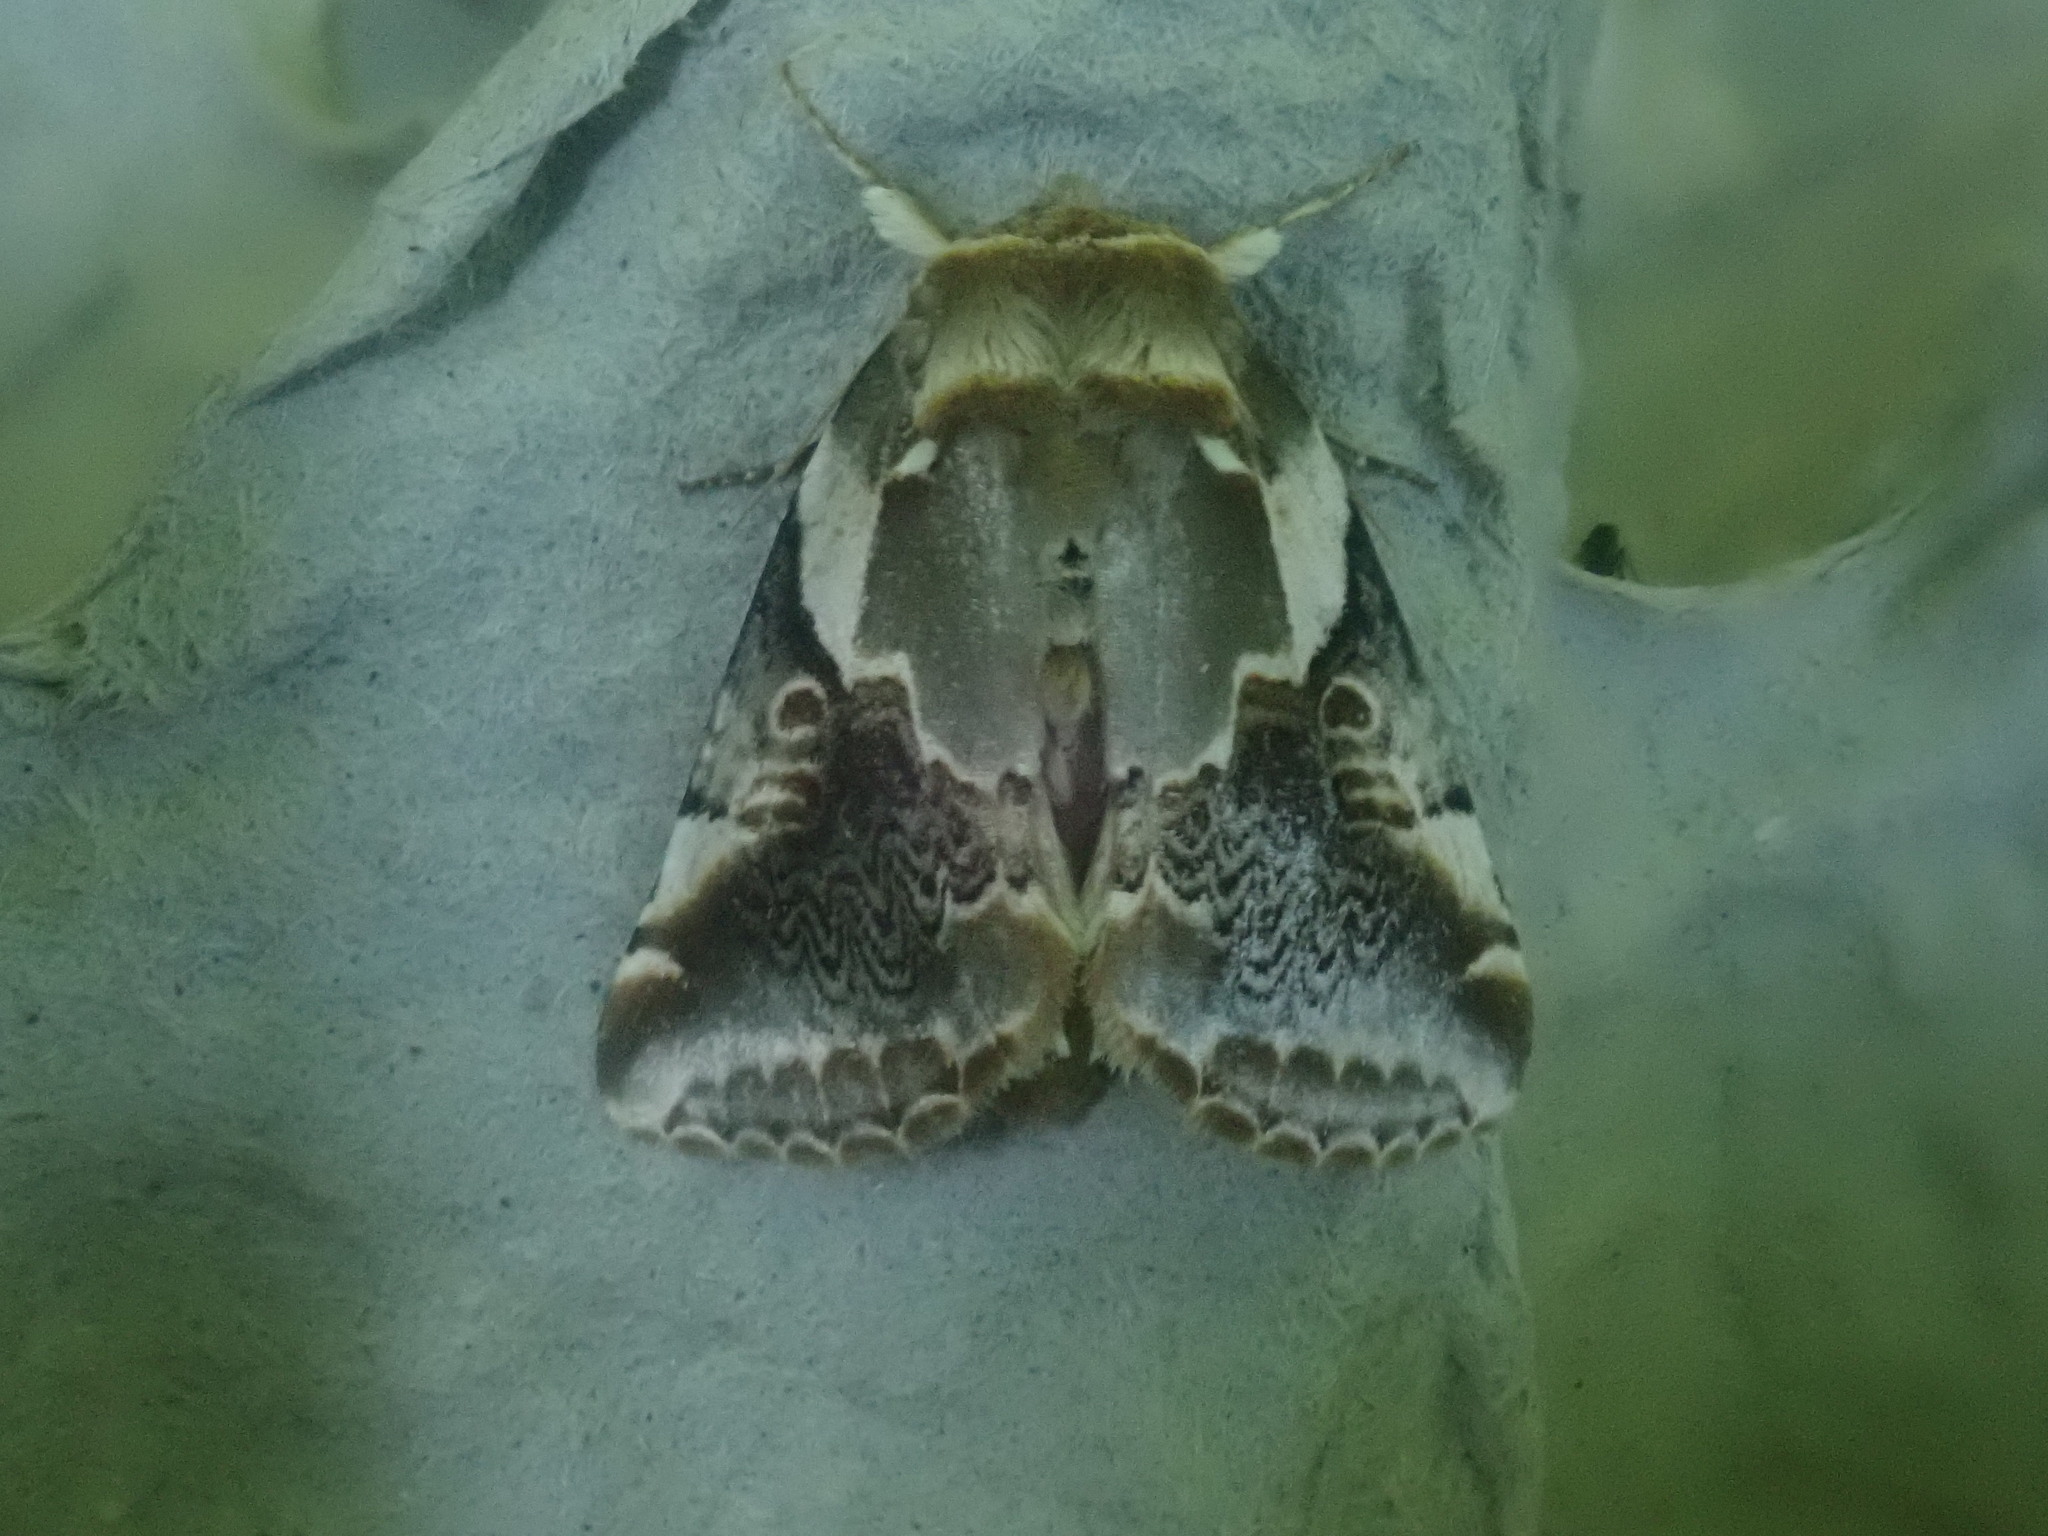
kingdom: Animalia
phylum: Arthropoda
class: Insecta
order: Lepidoptera
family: Drepanidae
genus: Habrosyne
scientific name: Habrosyne gloriosa
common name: Glorious habrosyne moth
